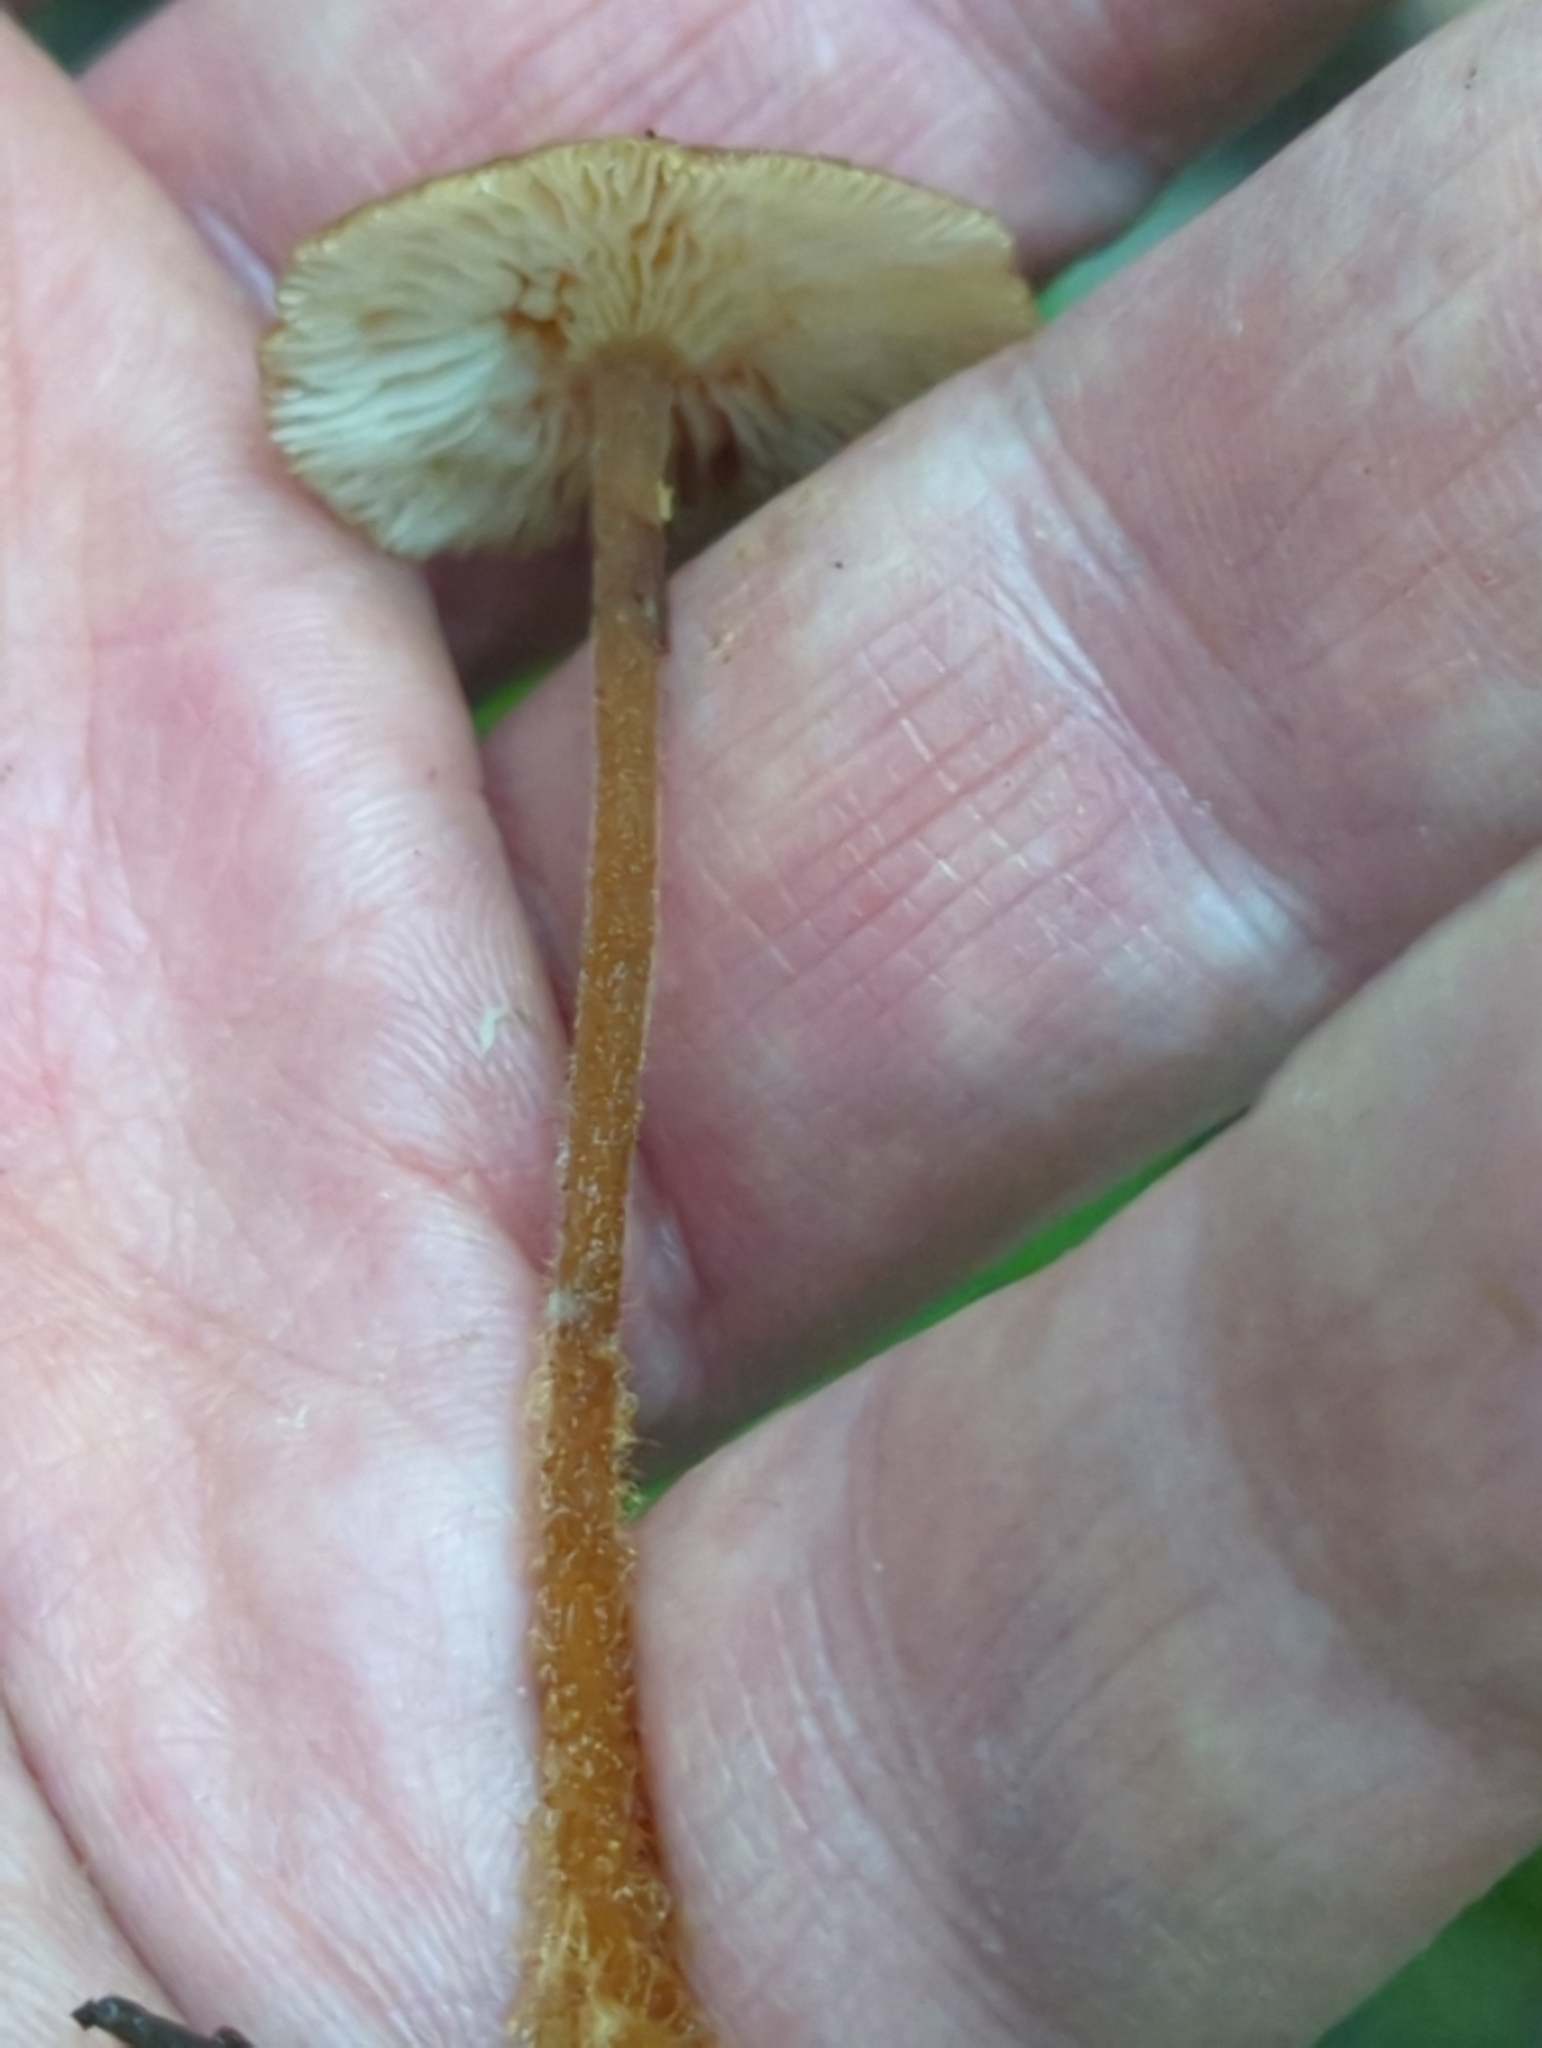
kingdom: Fungi
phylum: Basidiomycota
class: Agaricomycetes
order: Agaricales
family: Physalacriaceae
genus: Rhizomarasmius
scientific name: Rhizomarasmius pyrrhocephalus
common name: Hairy long stem marasmius
